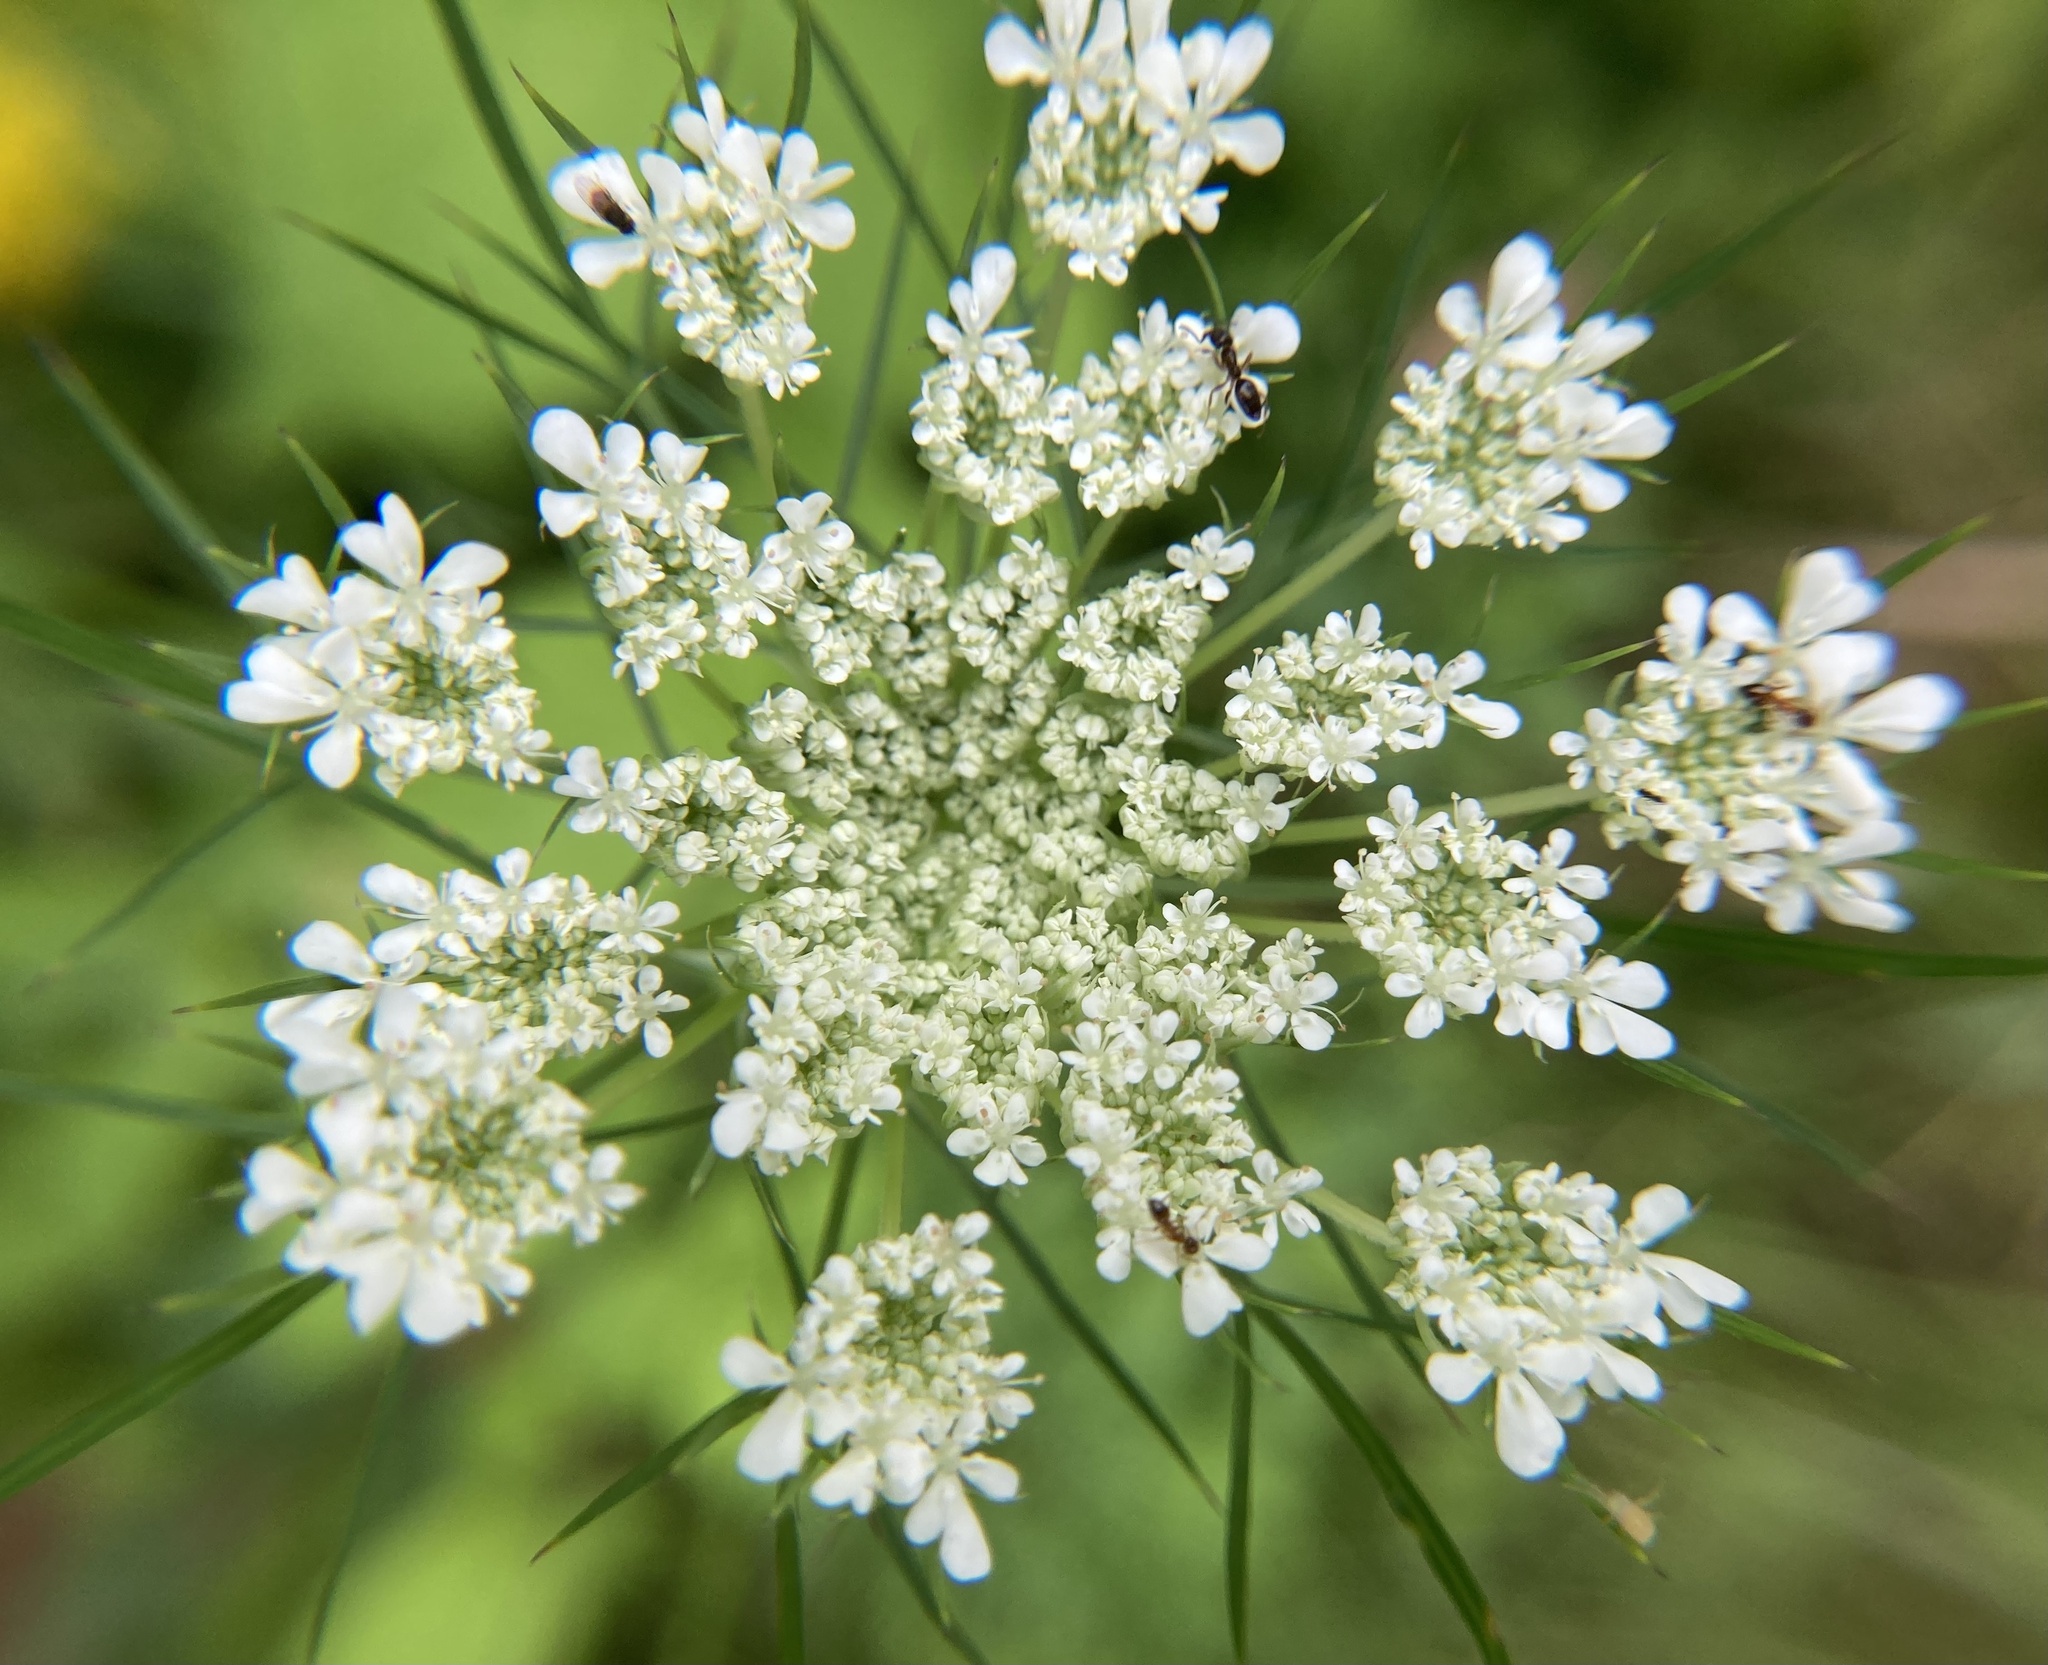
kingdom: Plantae
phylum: Tracheophyta
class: Magnoliopsida
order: Apiales
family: Apiaceae
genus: Daucus
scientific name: Daucus carota
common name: Wild carrot
